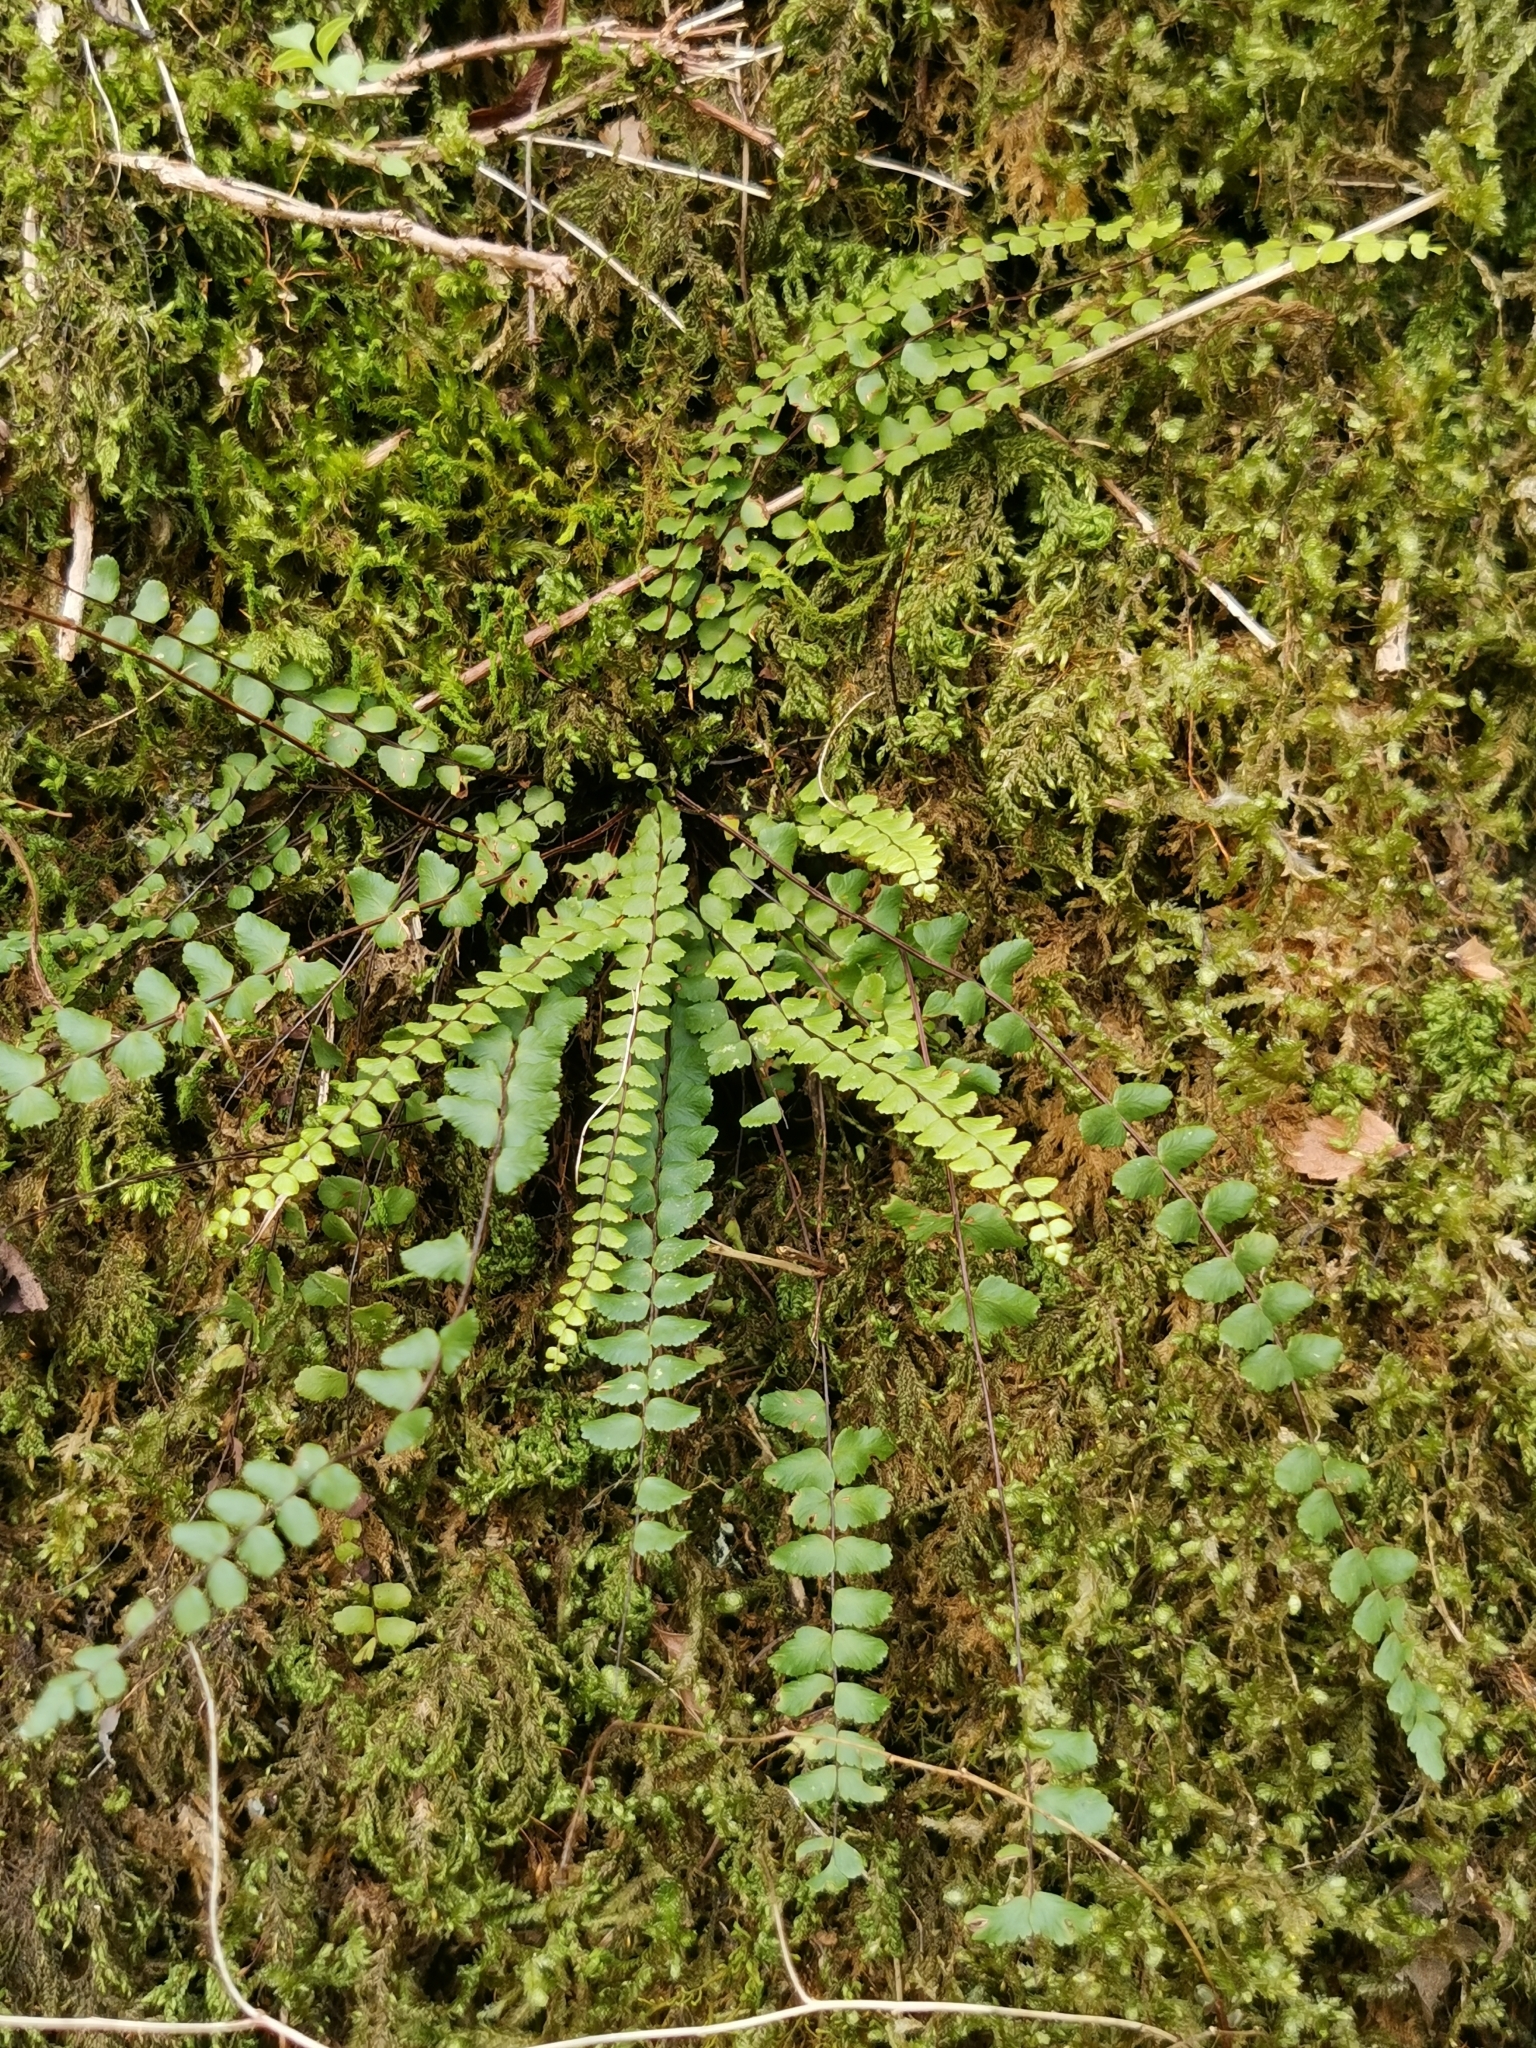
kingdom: Plantae
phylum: Tracheophyta
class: Polypodiopsida
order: Polypodiales
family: Aspleniaceae
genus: Asplenium
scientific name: Asplenium trichomanes
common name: Maidenhair spleenwort
